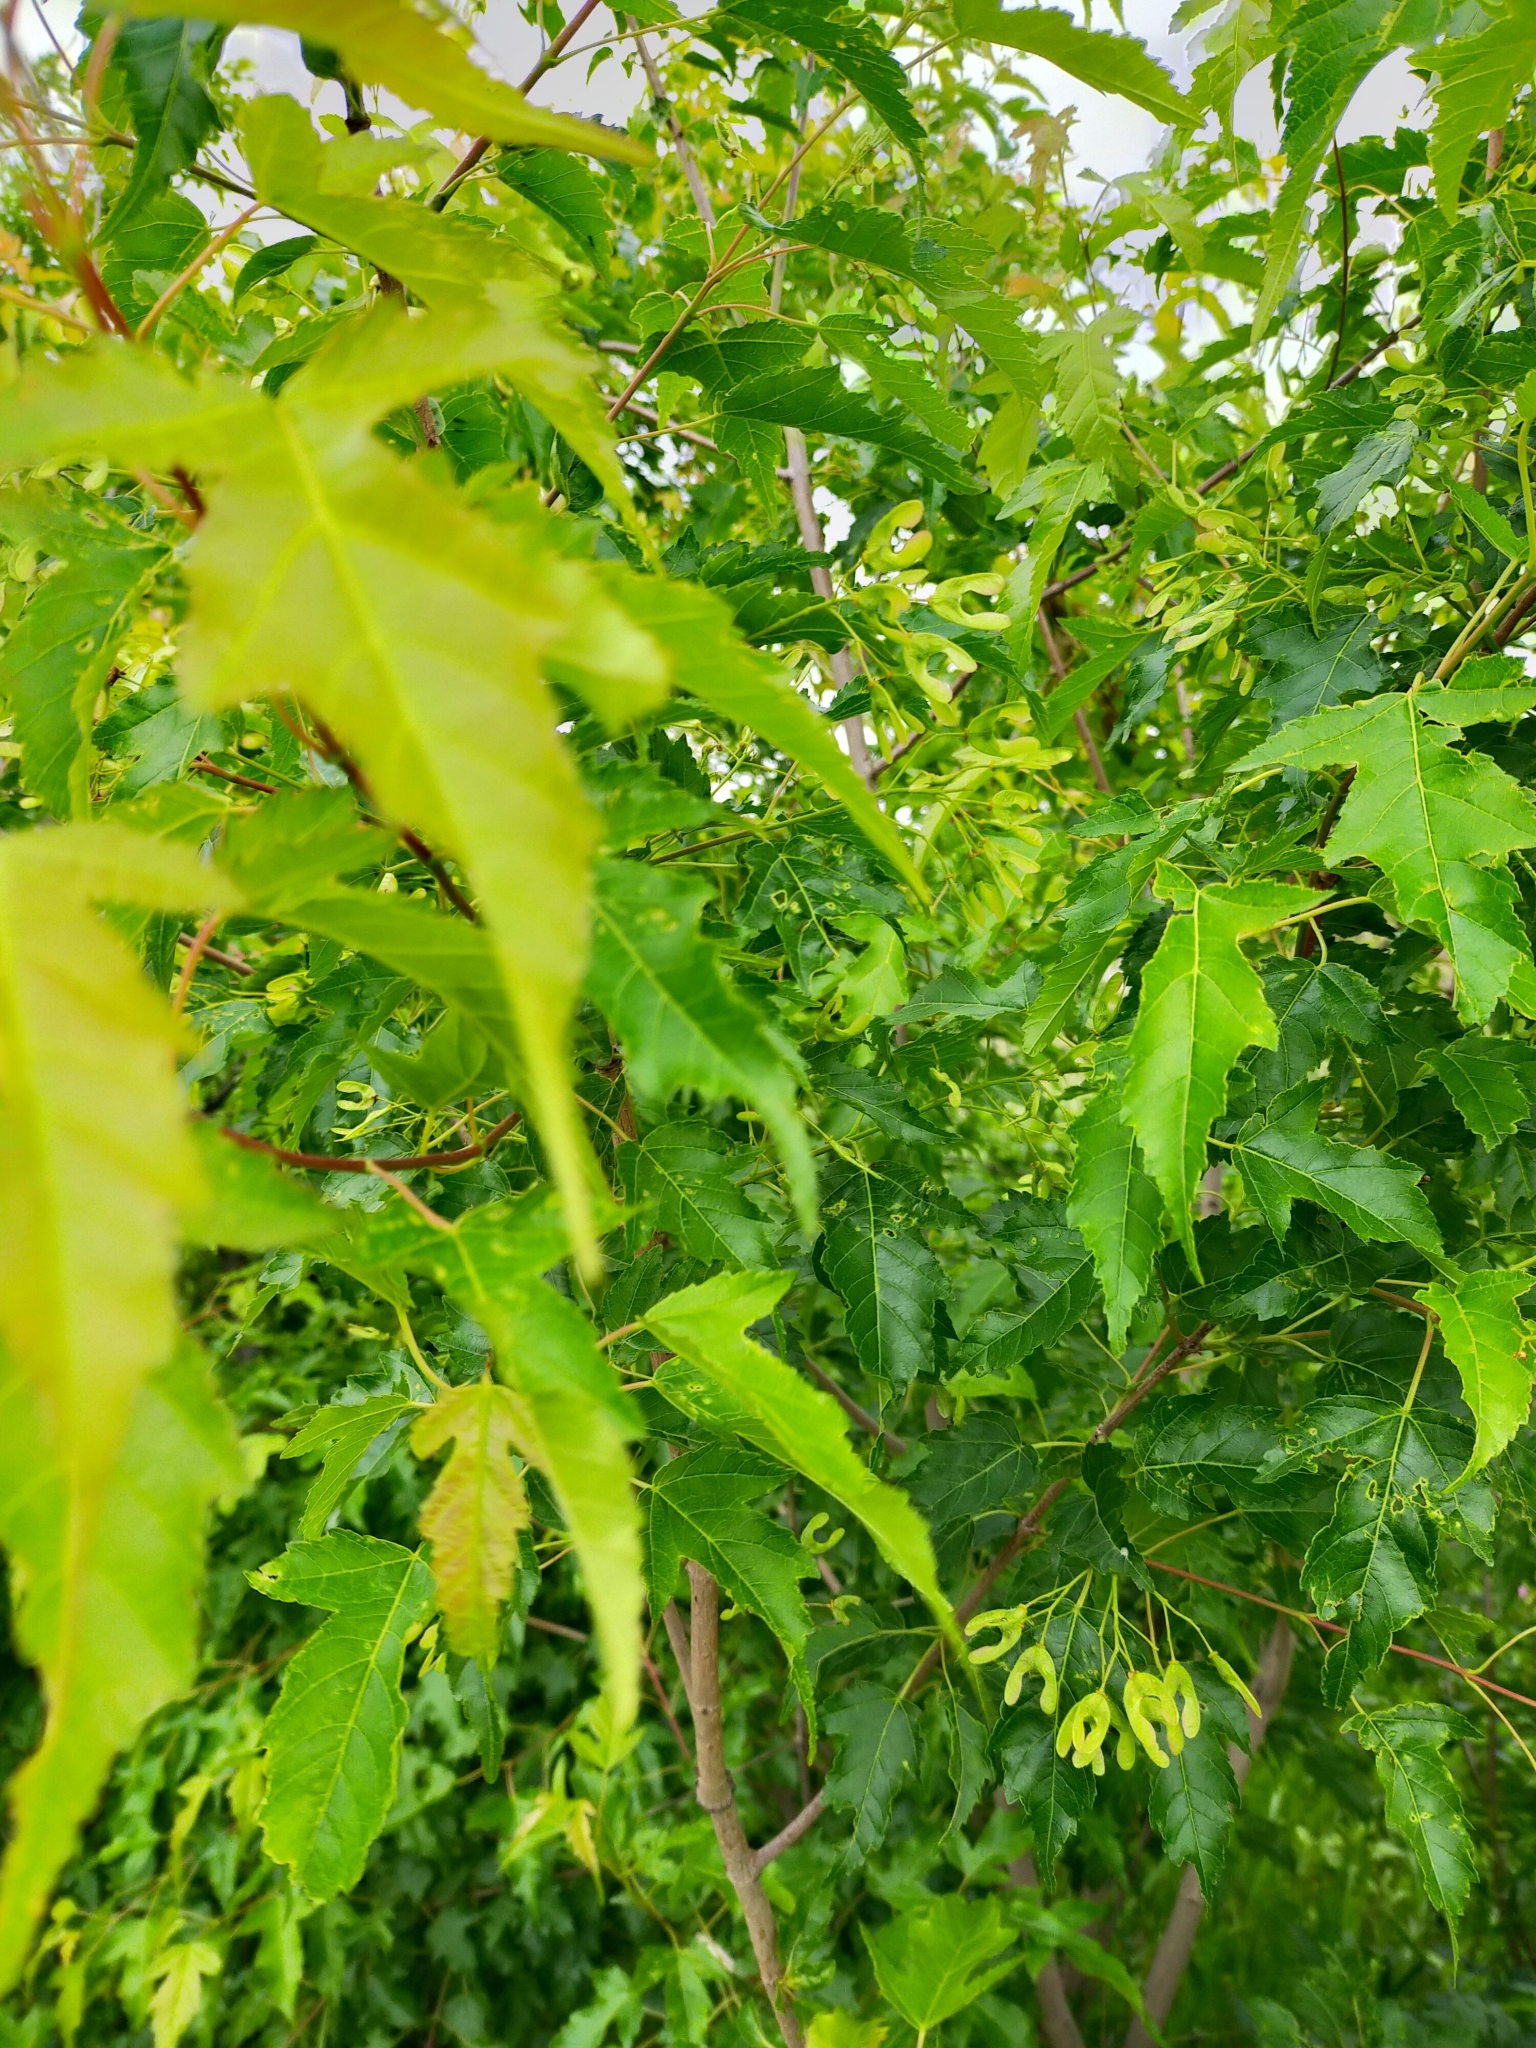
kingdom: Plantae
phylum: Tracheophyta
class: Magnoliopsida
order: Sapindales
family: Sapindaceae
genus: Acer
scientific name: Acer tataricum
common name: Tartar maple
